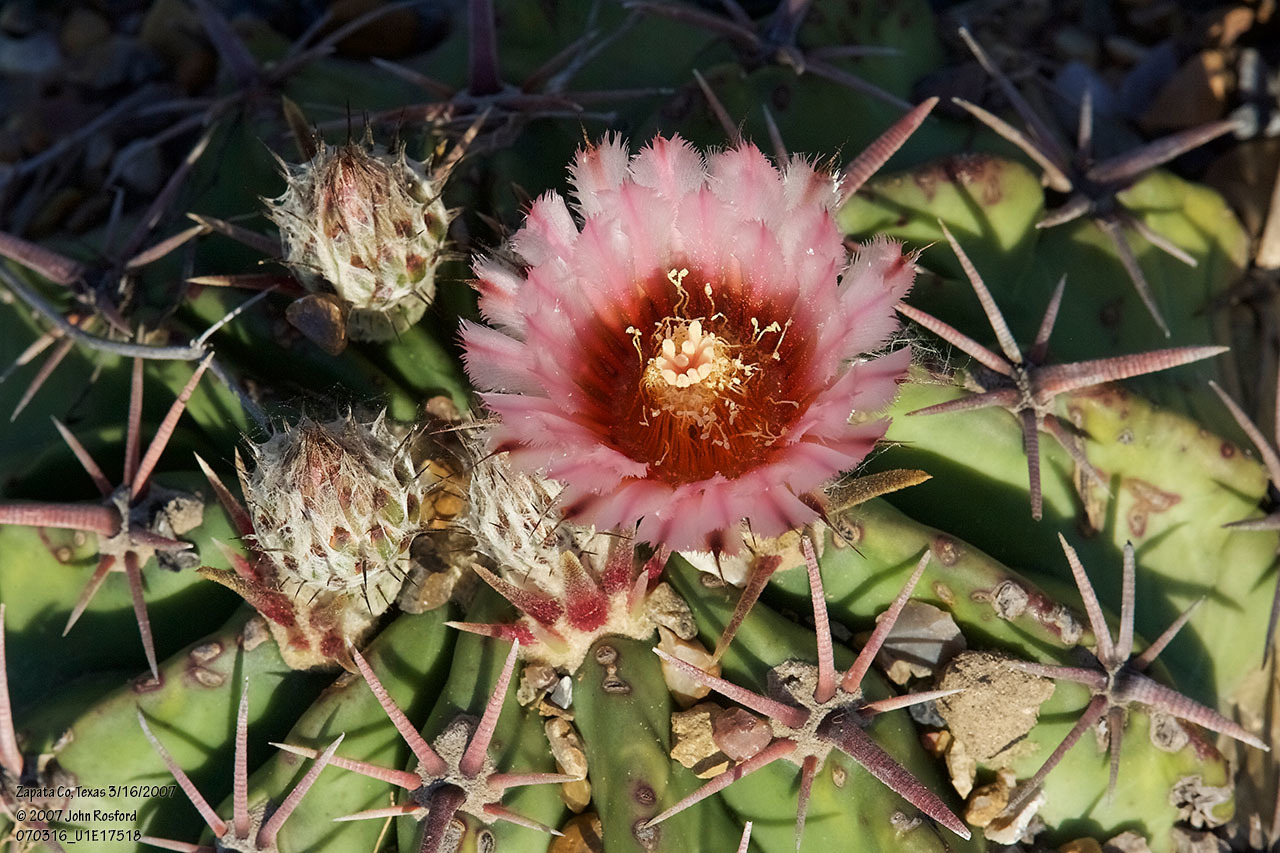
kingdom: Plantae
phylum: Tracheophyta
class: Magnoliopsida
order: Caryophyllales
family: Cactaceae
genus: Echinocactus
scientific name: Echinocactus texensis
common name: Devil's pincushion
